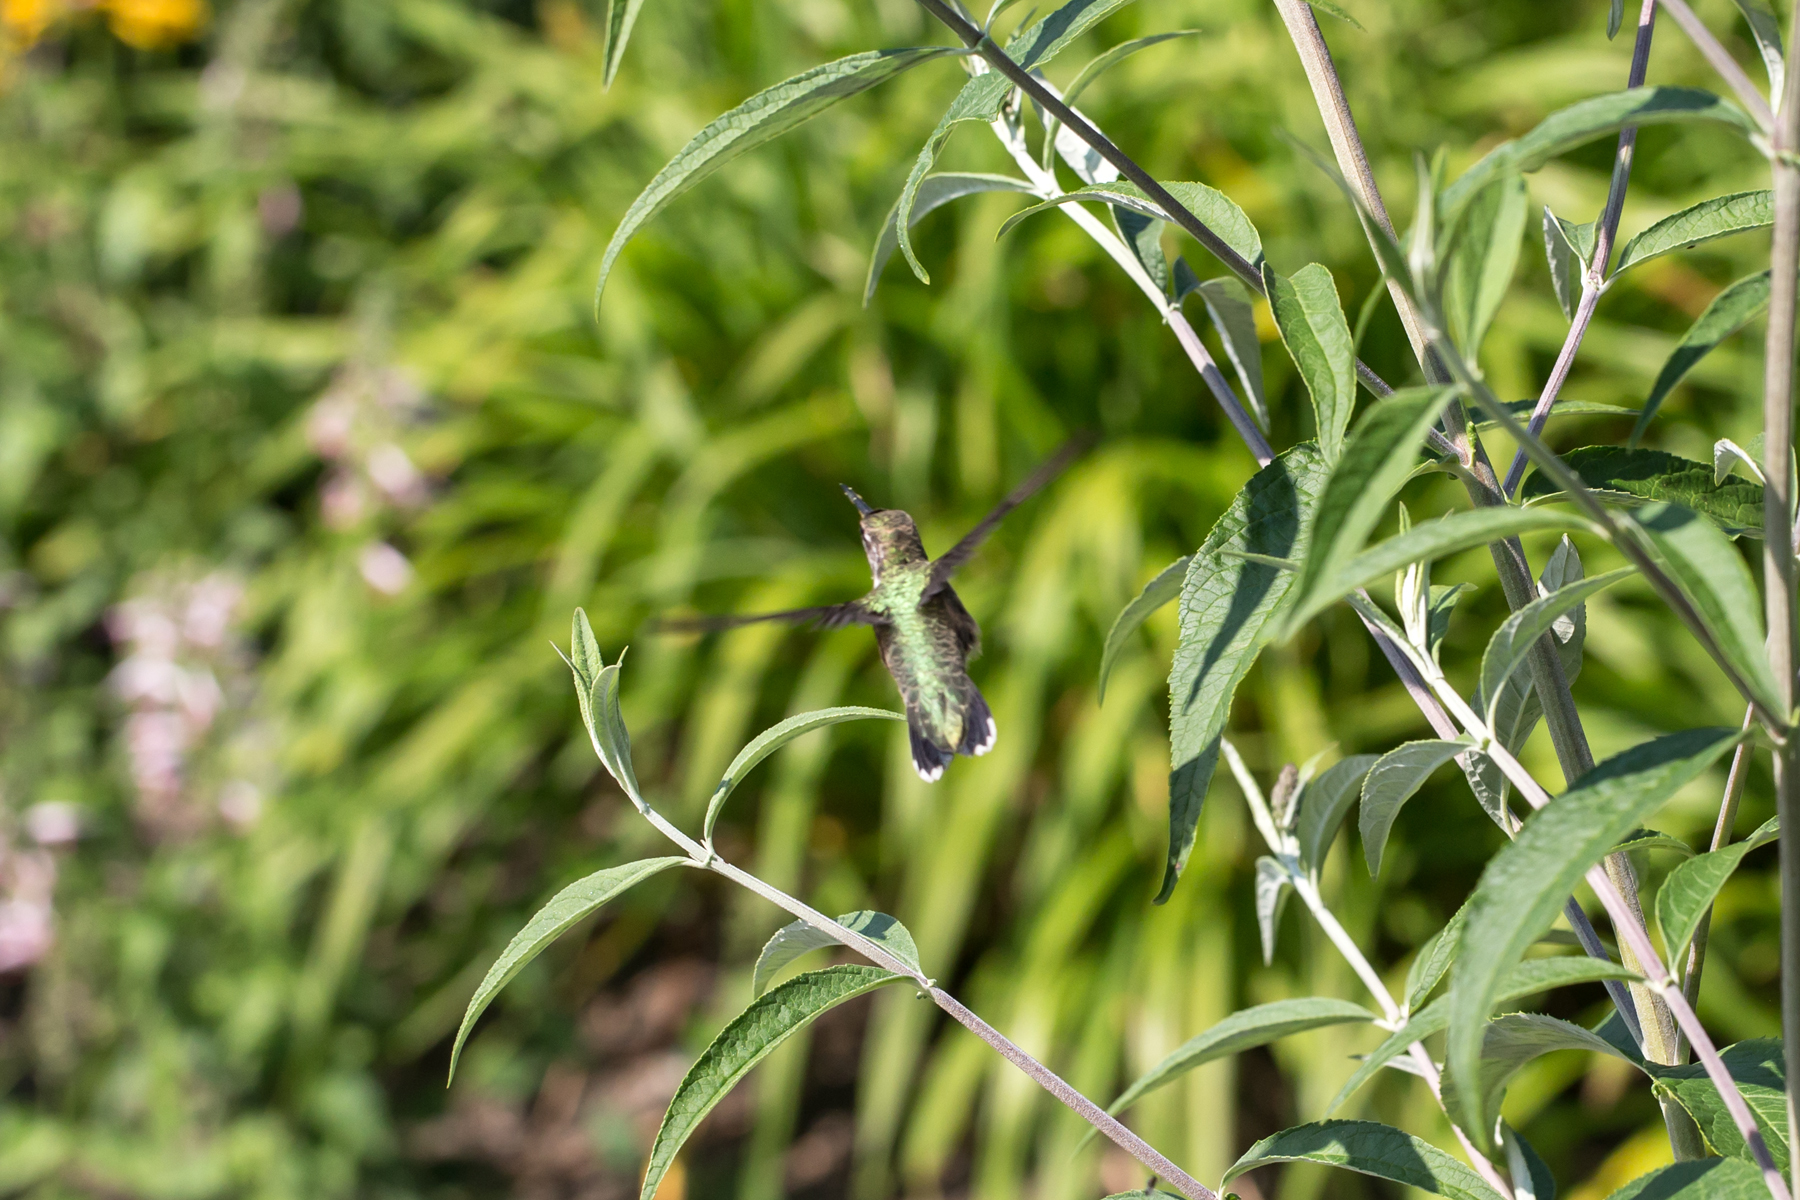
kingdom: Animalia
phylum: Chordata
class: Aves
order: Apodiformes
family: Trochilidae
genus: Archilochus
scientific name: Archilochus colubris
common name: Ruby-throated hummingbird
